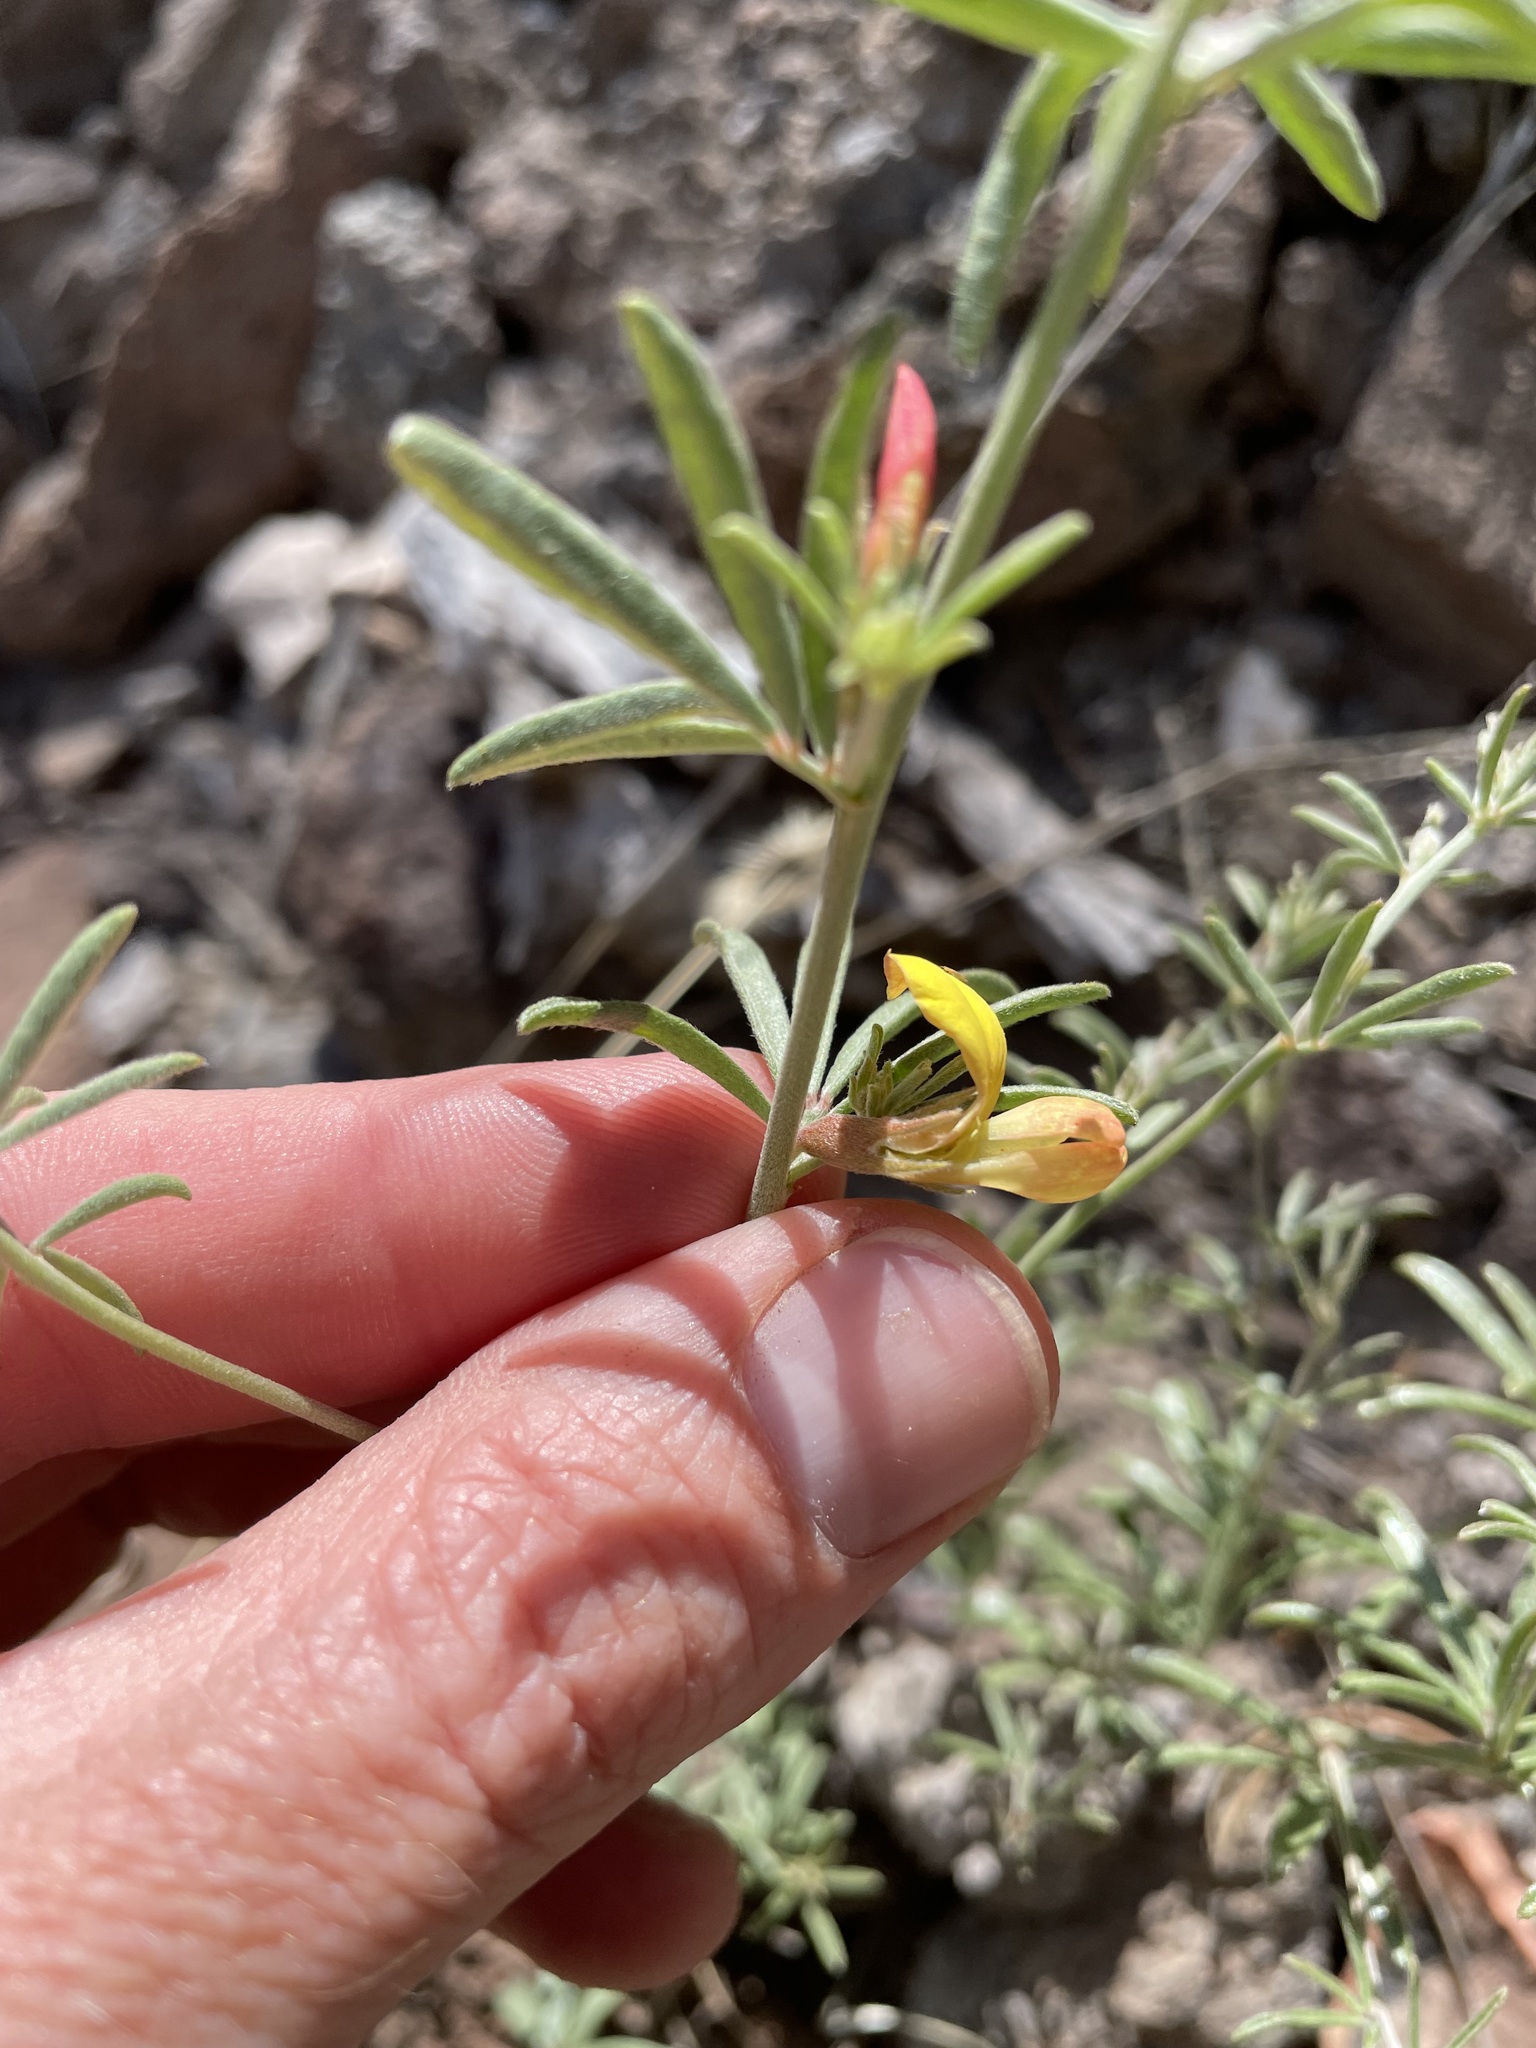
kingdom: Plantae
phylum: Tracheophyta
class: Magnoliopsida
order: Fabales
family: Fabaceae
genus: Acmispon
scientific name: Acmispon wrightii
